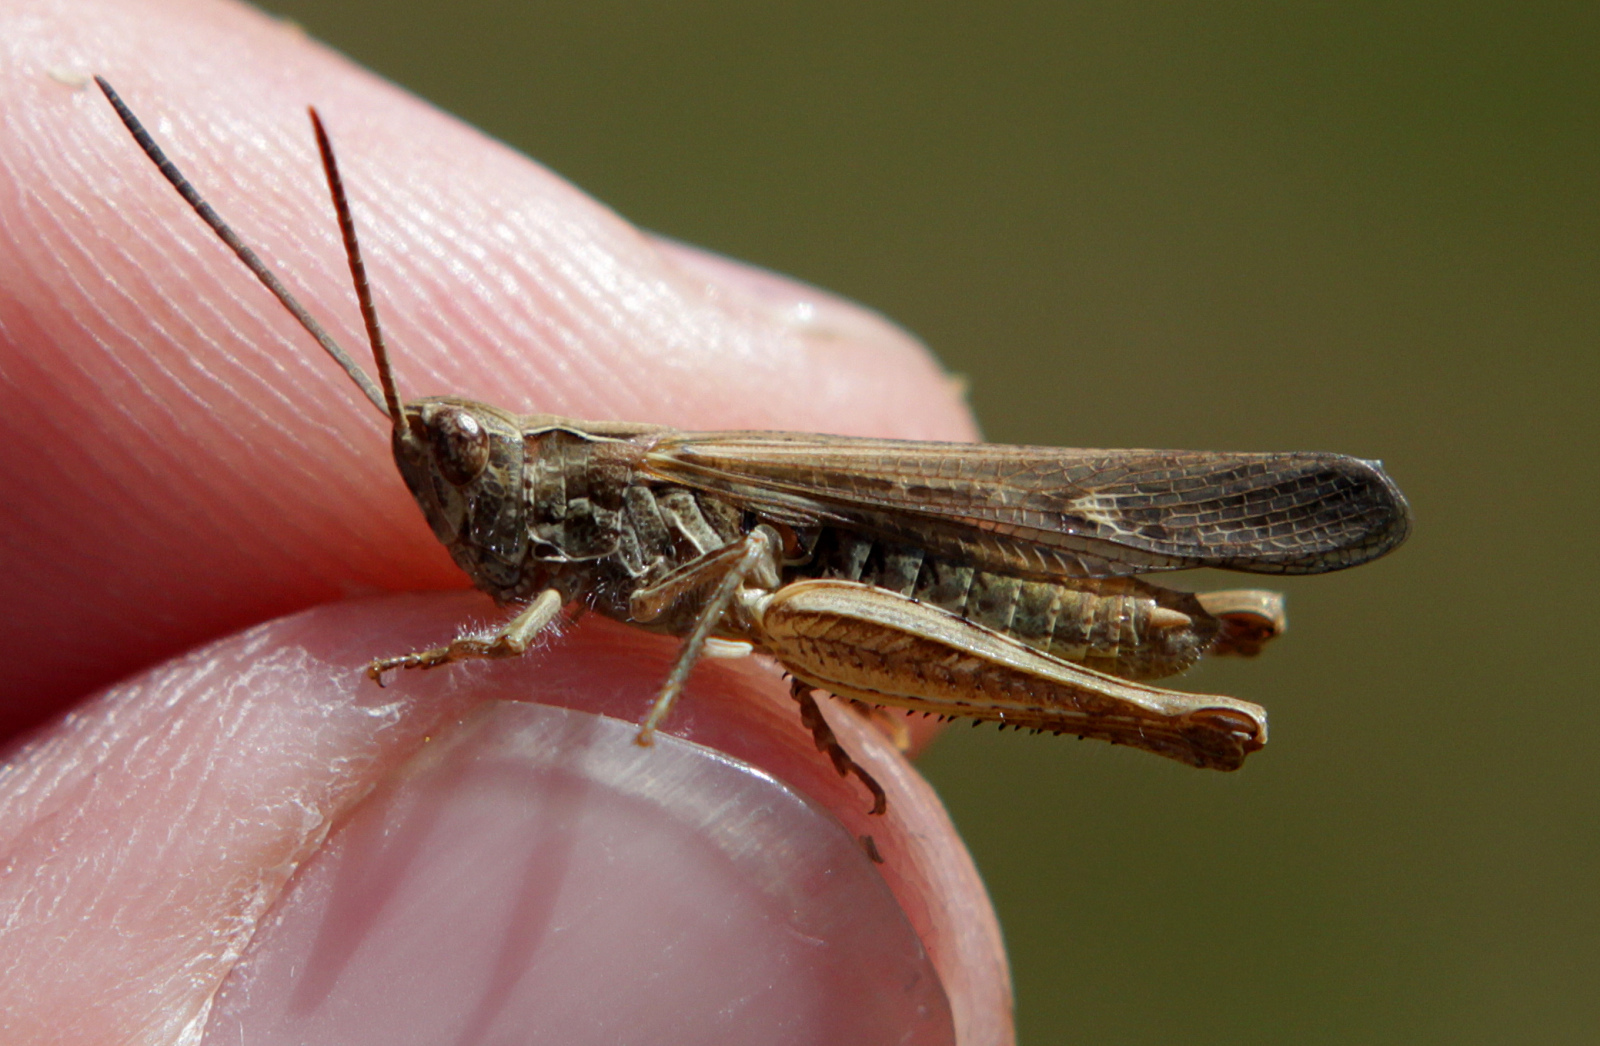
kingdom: Animalia
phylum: Arthropoda
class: Insecta
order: Orthoptera
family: Acrididae
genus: Chorthippus
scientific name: Chorthippus brunneus
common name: Field grasshopper
